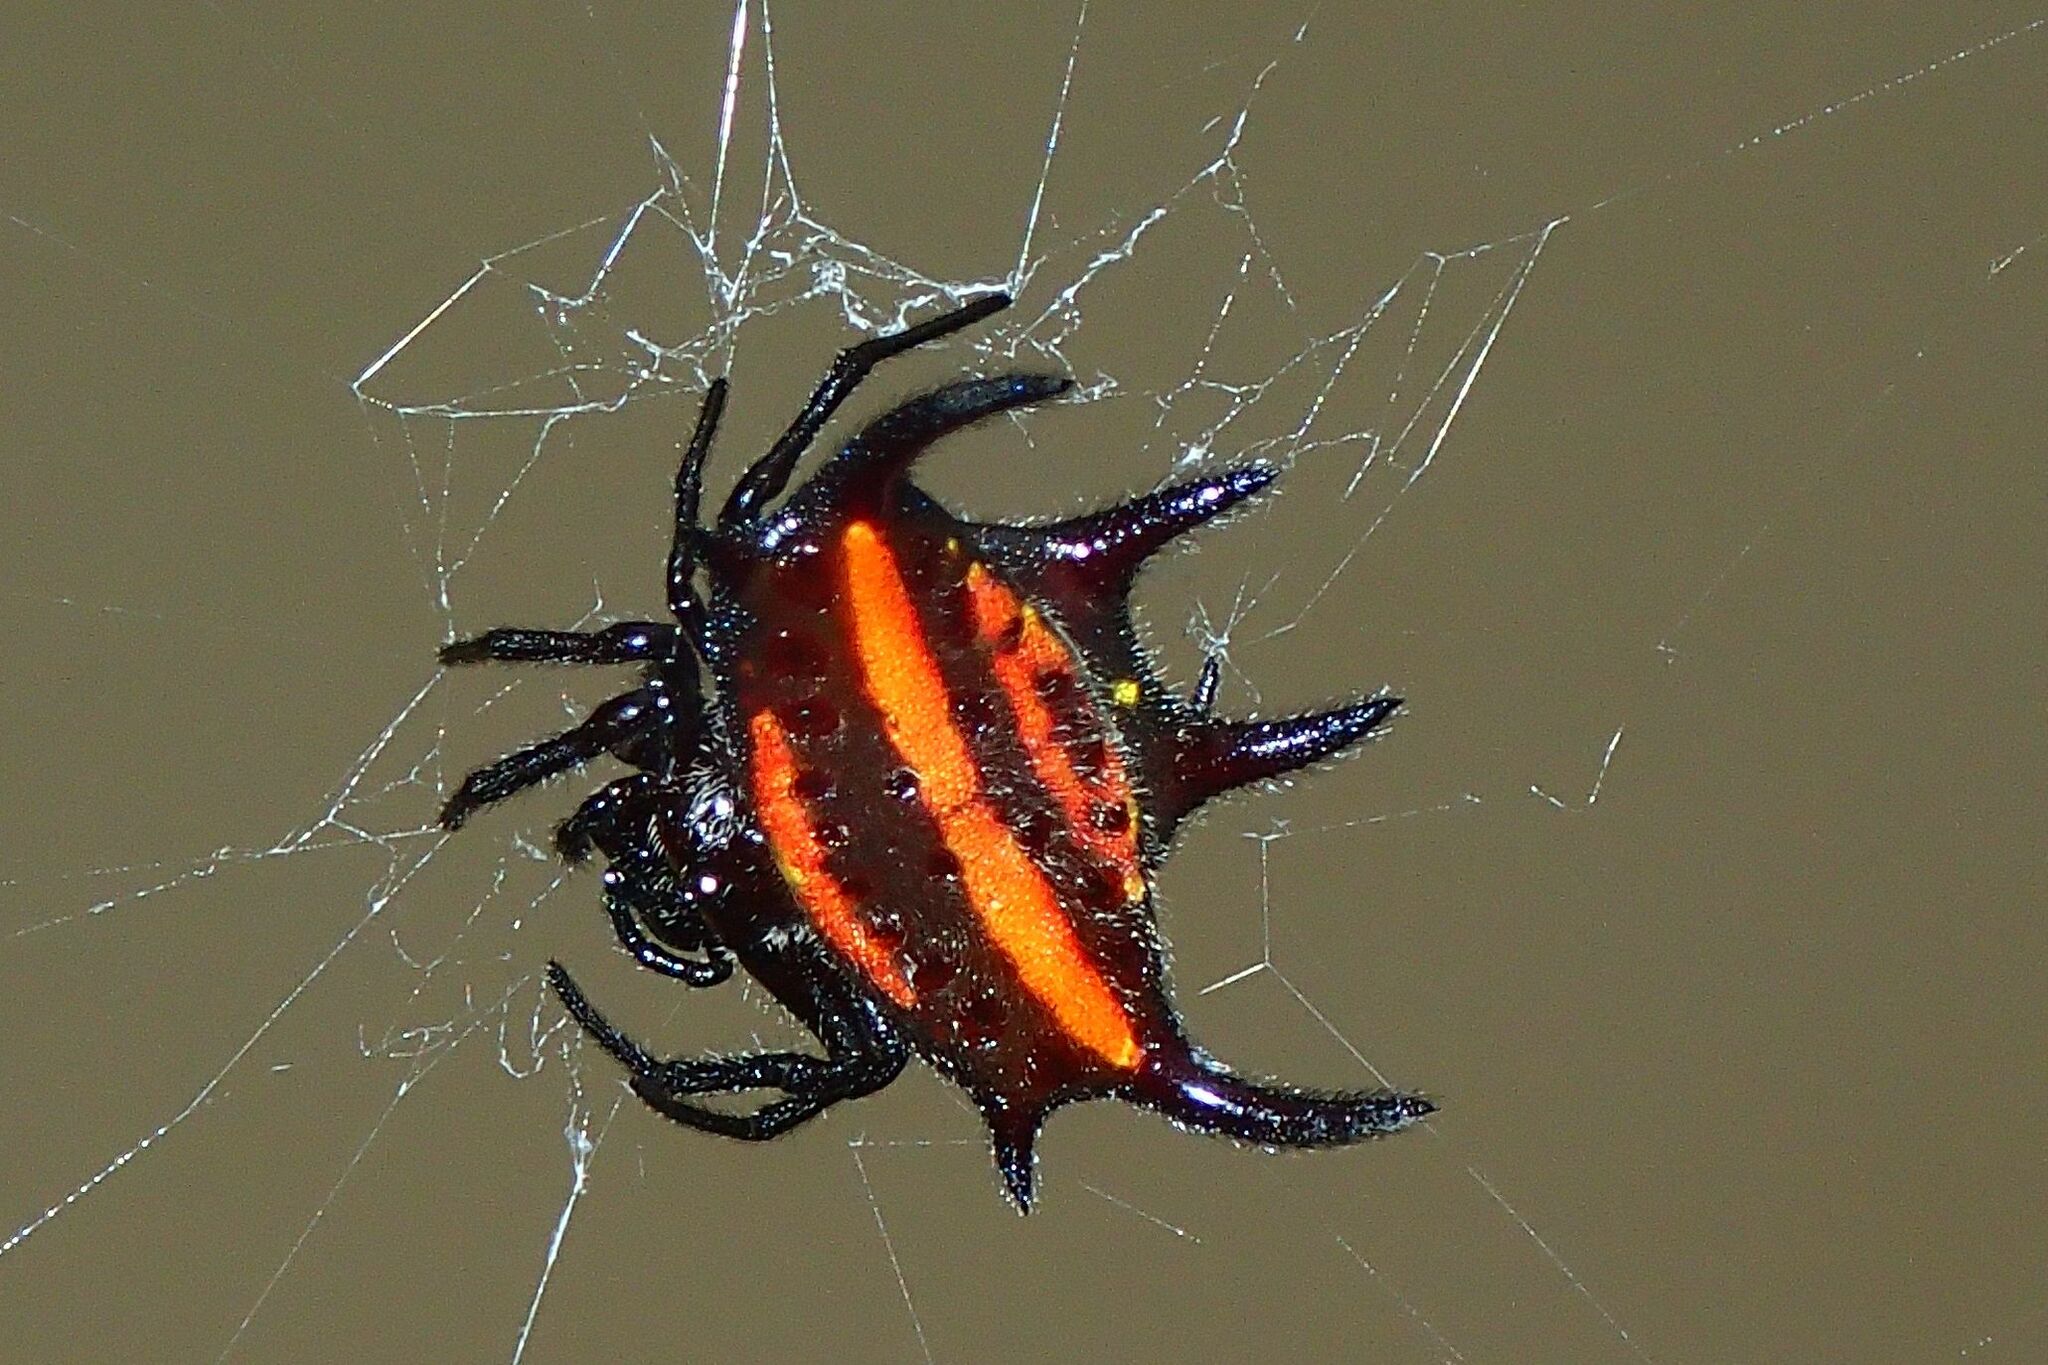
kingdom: Animalia
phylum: Arthropoda
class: Arachnida
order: Araneae
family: Araneidae
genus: Gasteracantha
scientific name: Gasteracantha curvispina
